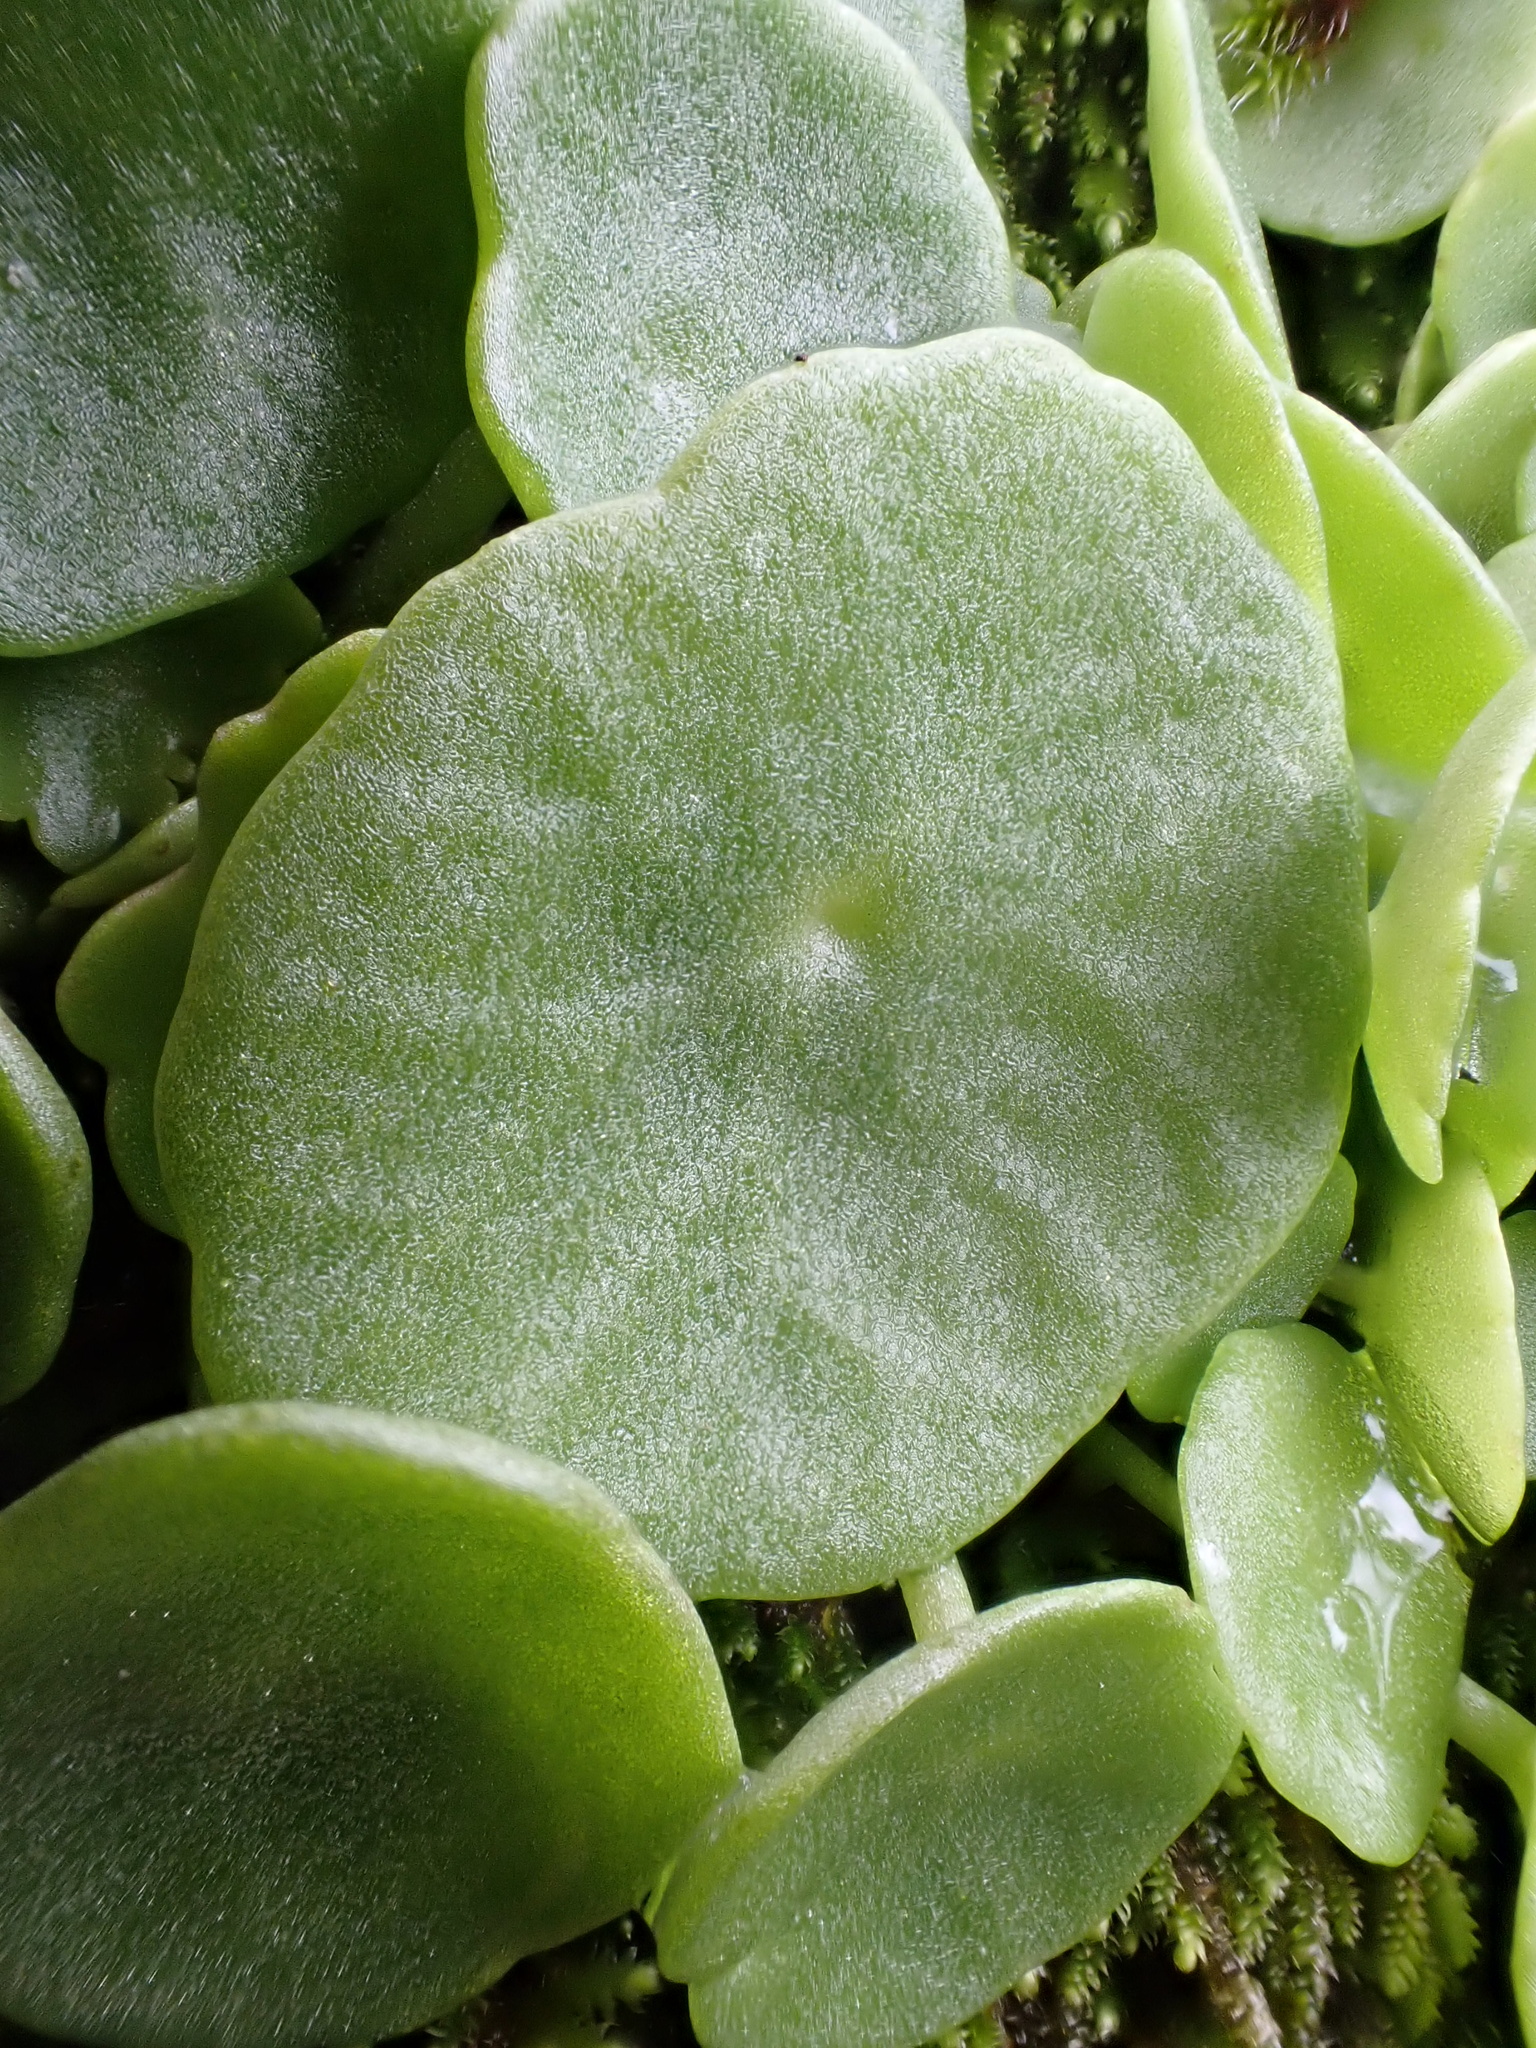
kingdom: Plantae
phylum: Tracheophyta
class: Magnoliopsida
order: Saxifragales
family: Crassulaceae
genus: Umbilicus
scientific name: Umbilicus rupestris
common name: Navelwort
